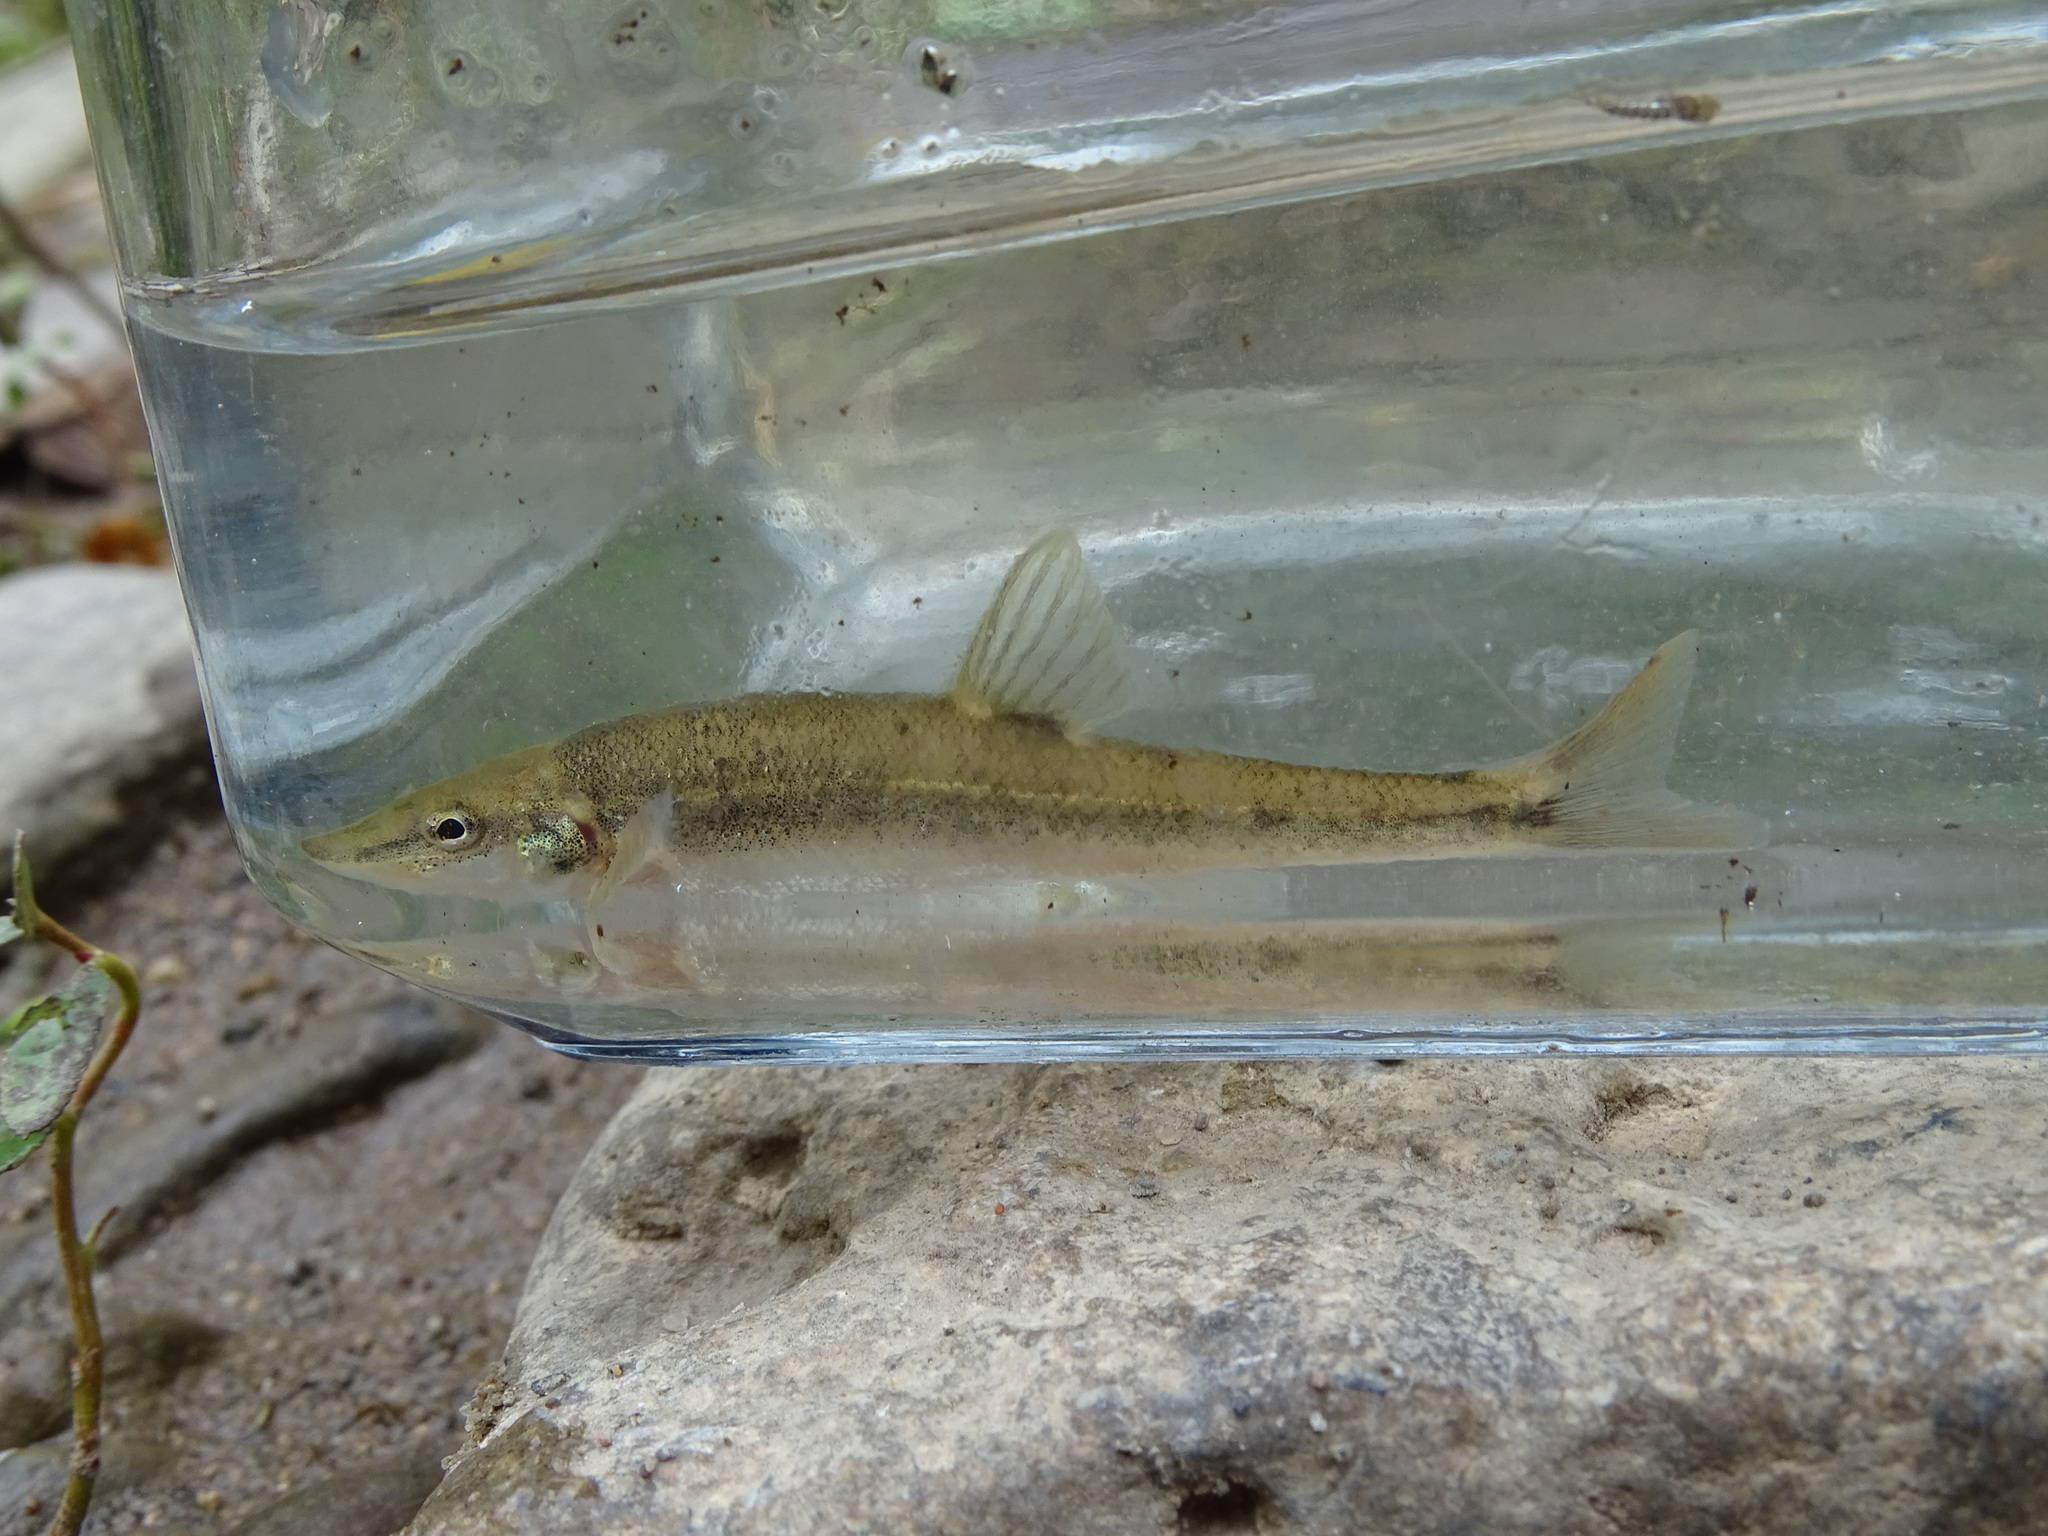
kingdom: Animalia
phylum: Chordata
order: Cypriniformes
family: Cyprinidae
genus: Rhinichthys
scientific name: Rhinichthys cataractae
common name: Longnose dace
